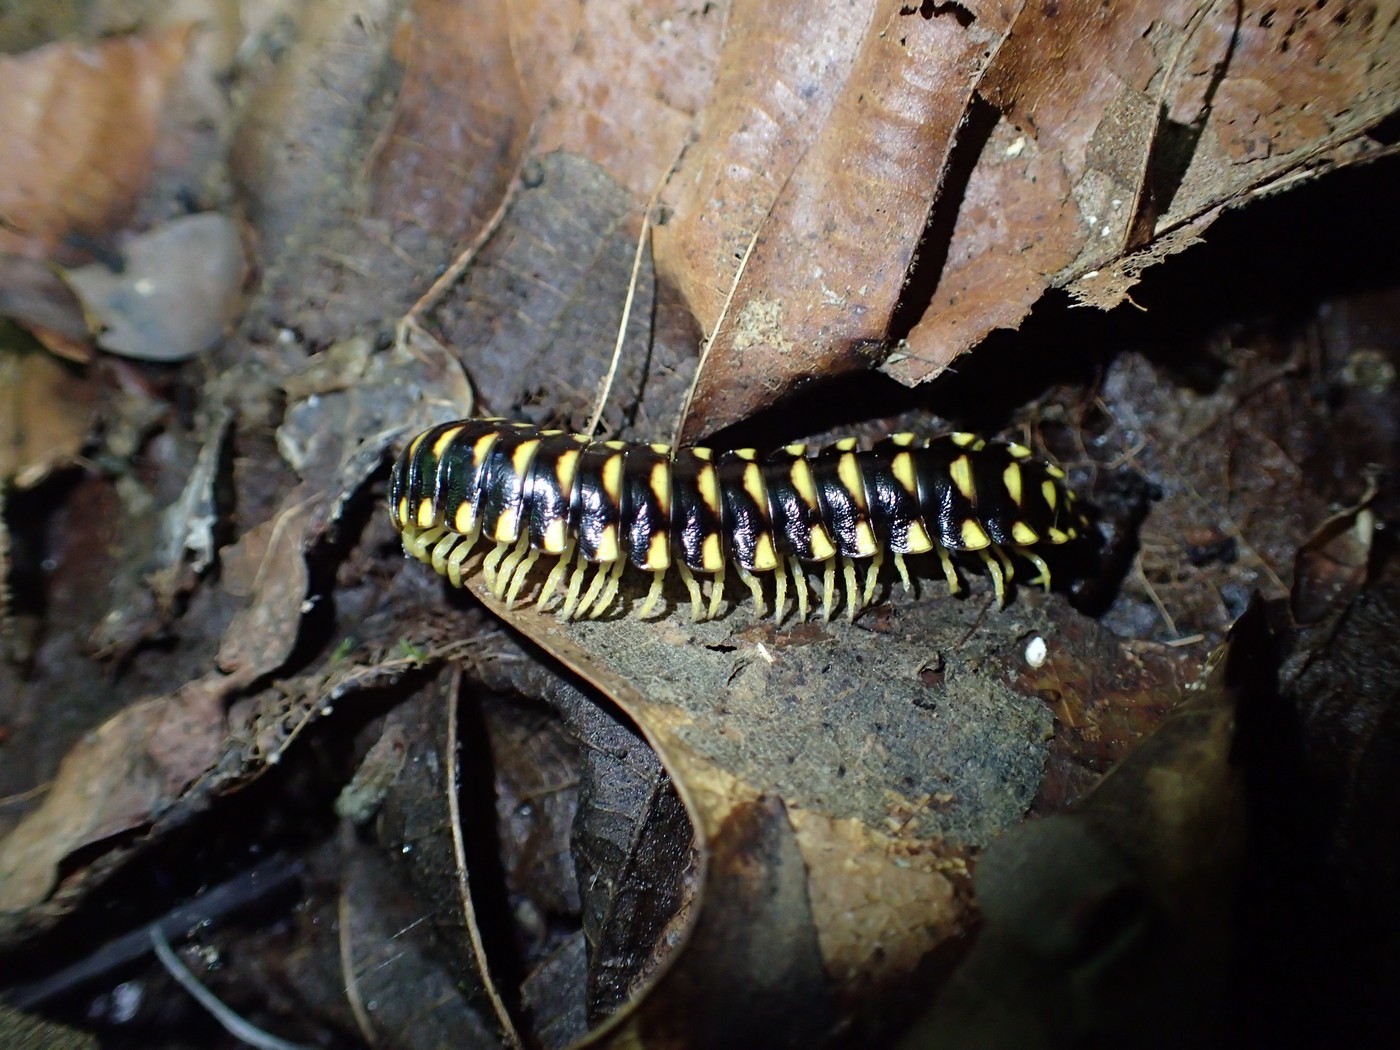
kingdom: Animalia
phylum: Arthropoda
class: Diplopoda
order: Polydesmida
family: Xystodesmidae
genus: Cherokia
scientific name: Cherokia georgiana
